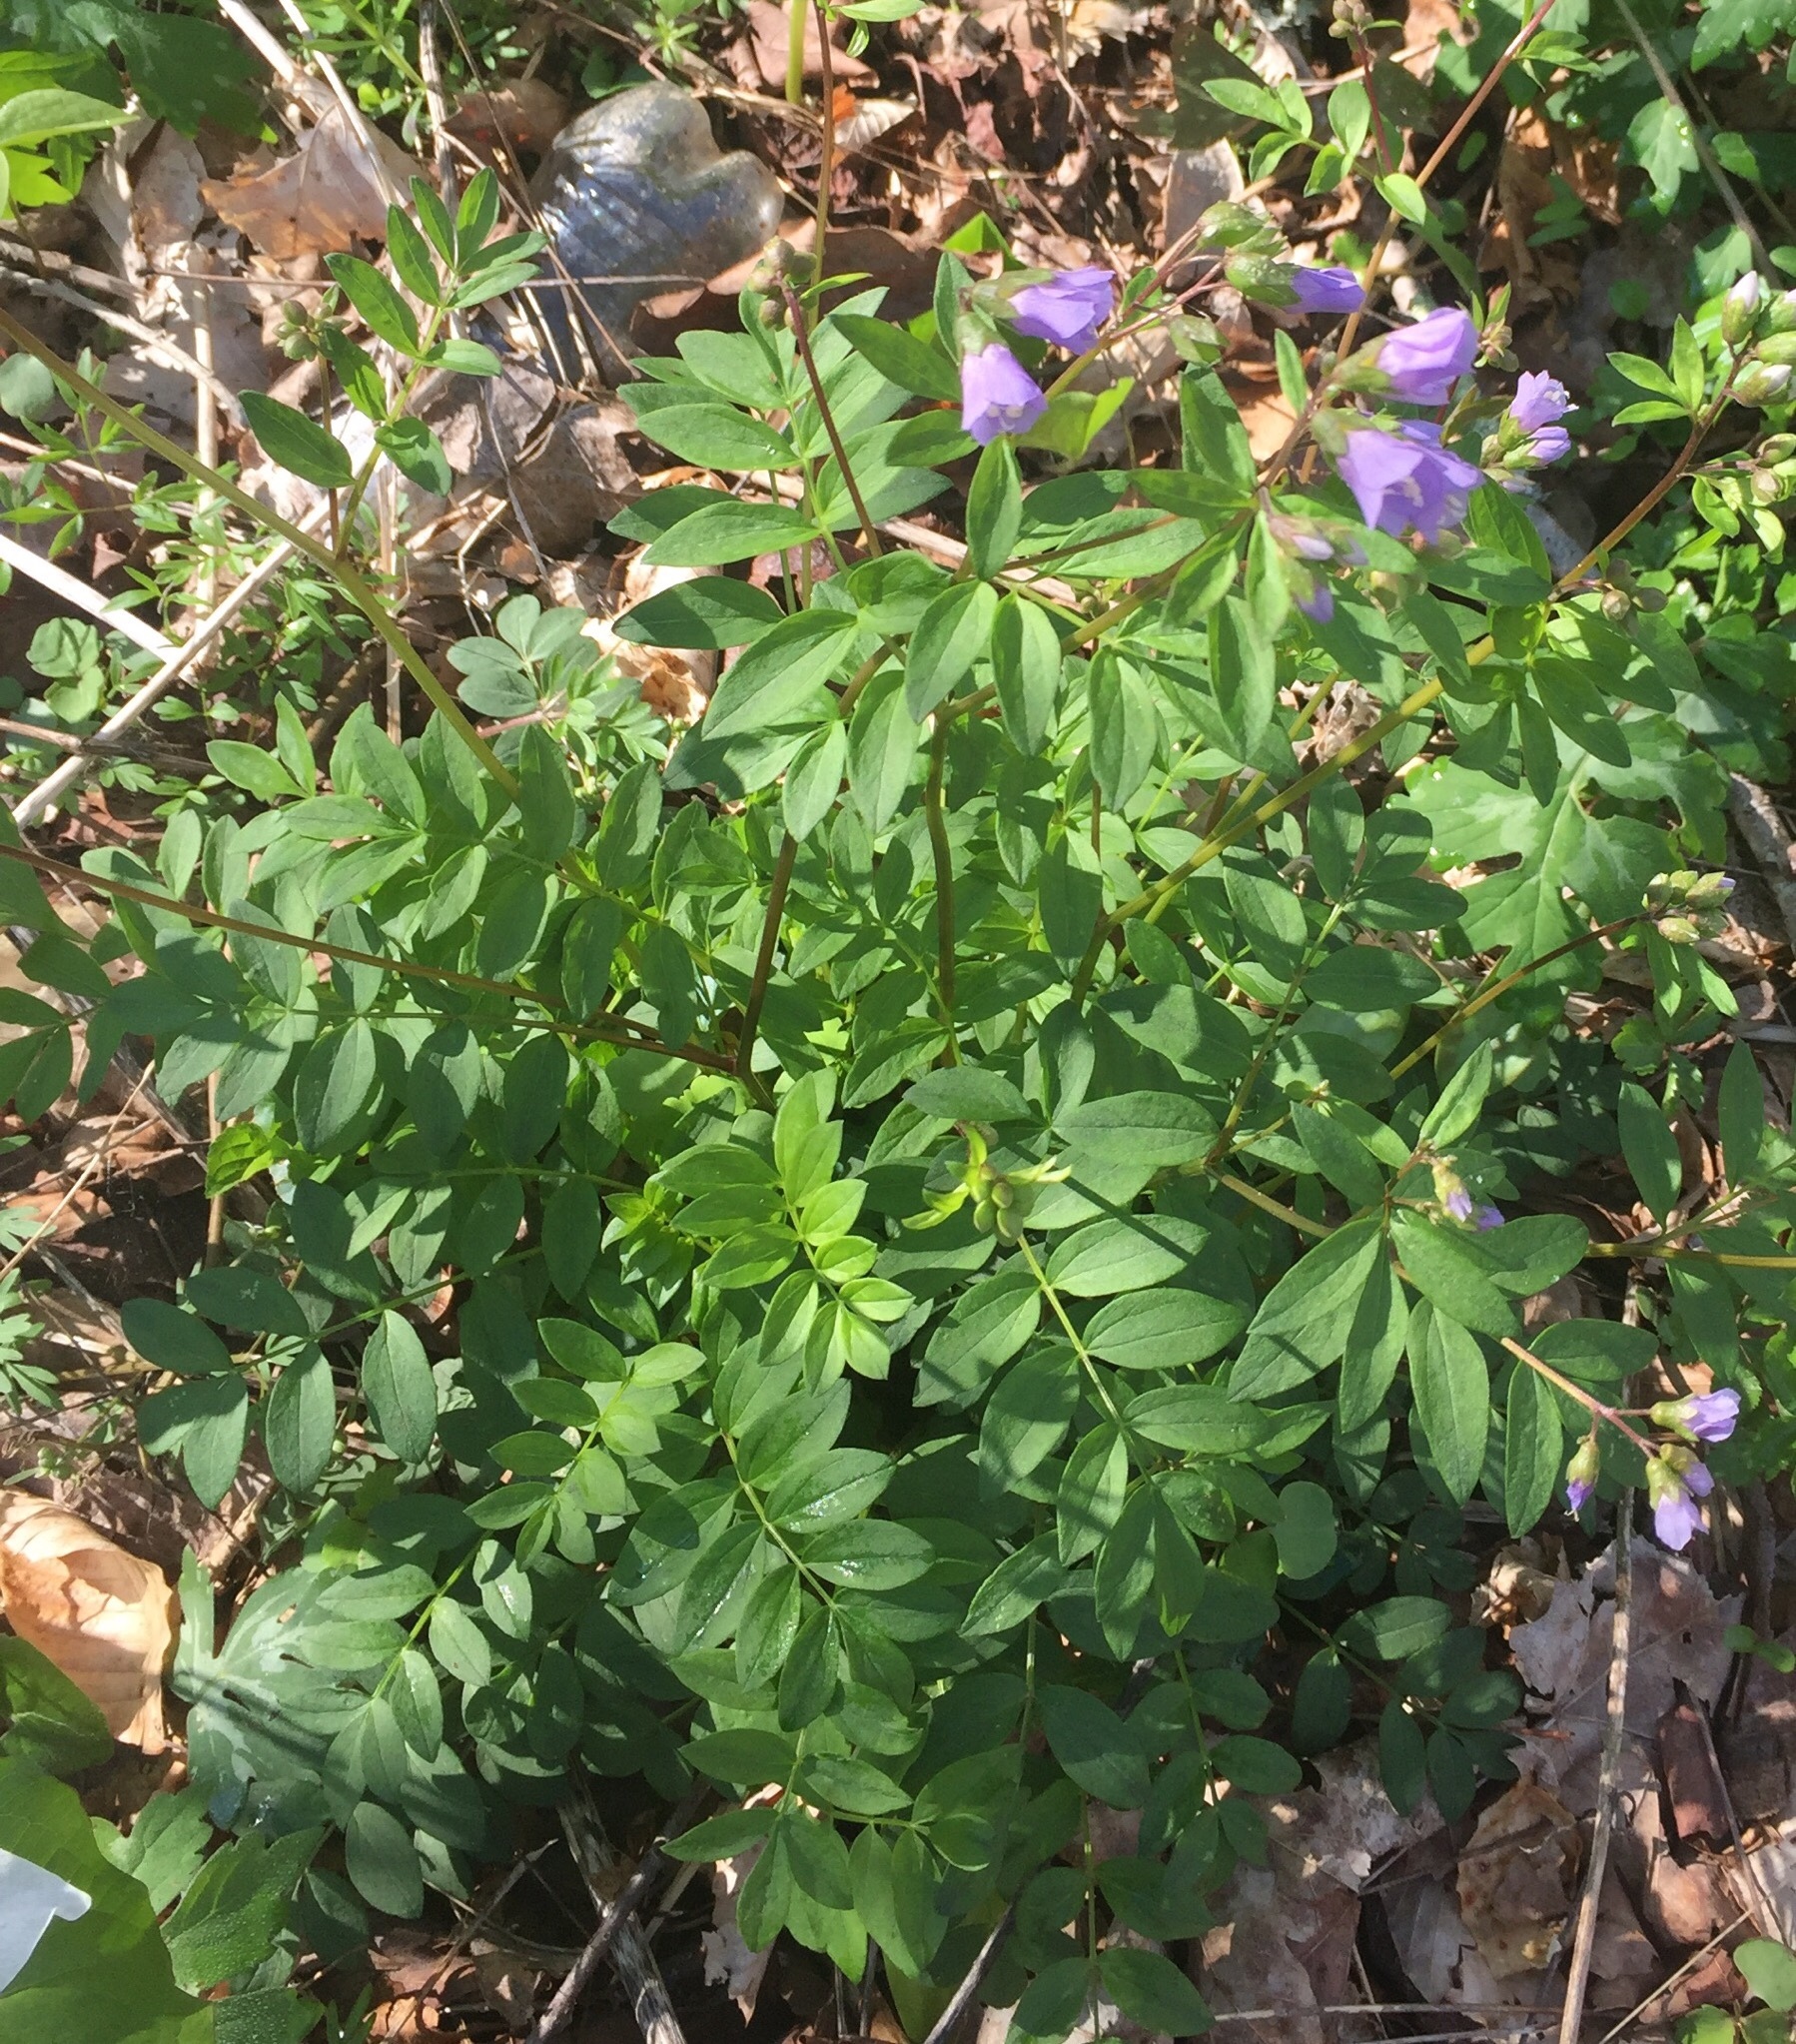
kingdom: Plantae
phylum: Tracheophyta
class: Magnoliopsida
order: Ericales
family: Polemoniaceae
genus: Polemonium
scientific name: Polemonium reptans
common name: Creeping jacob's-ladder
